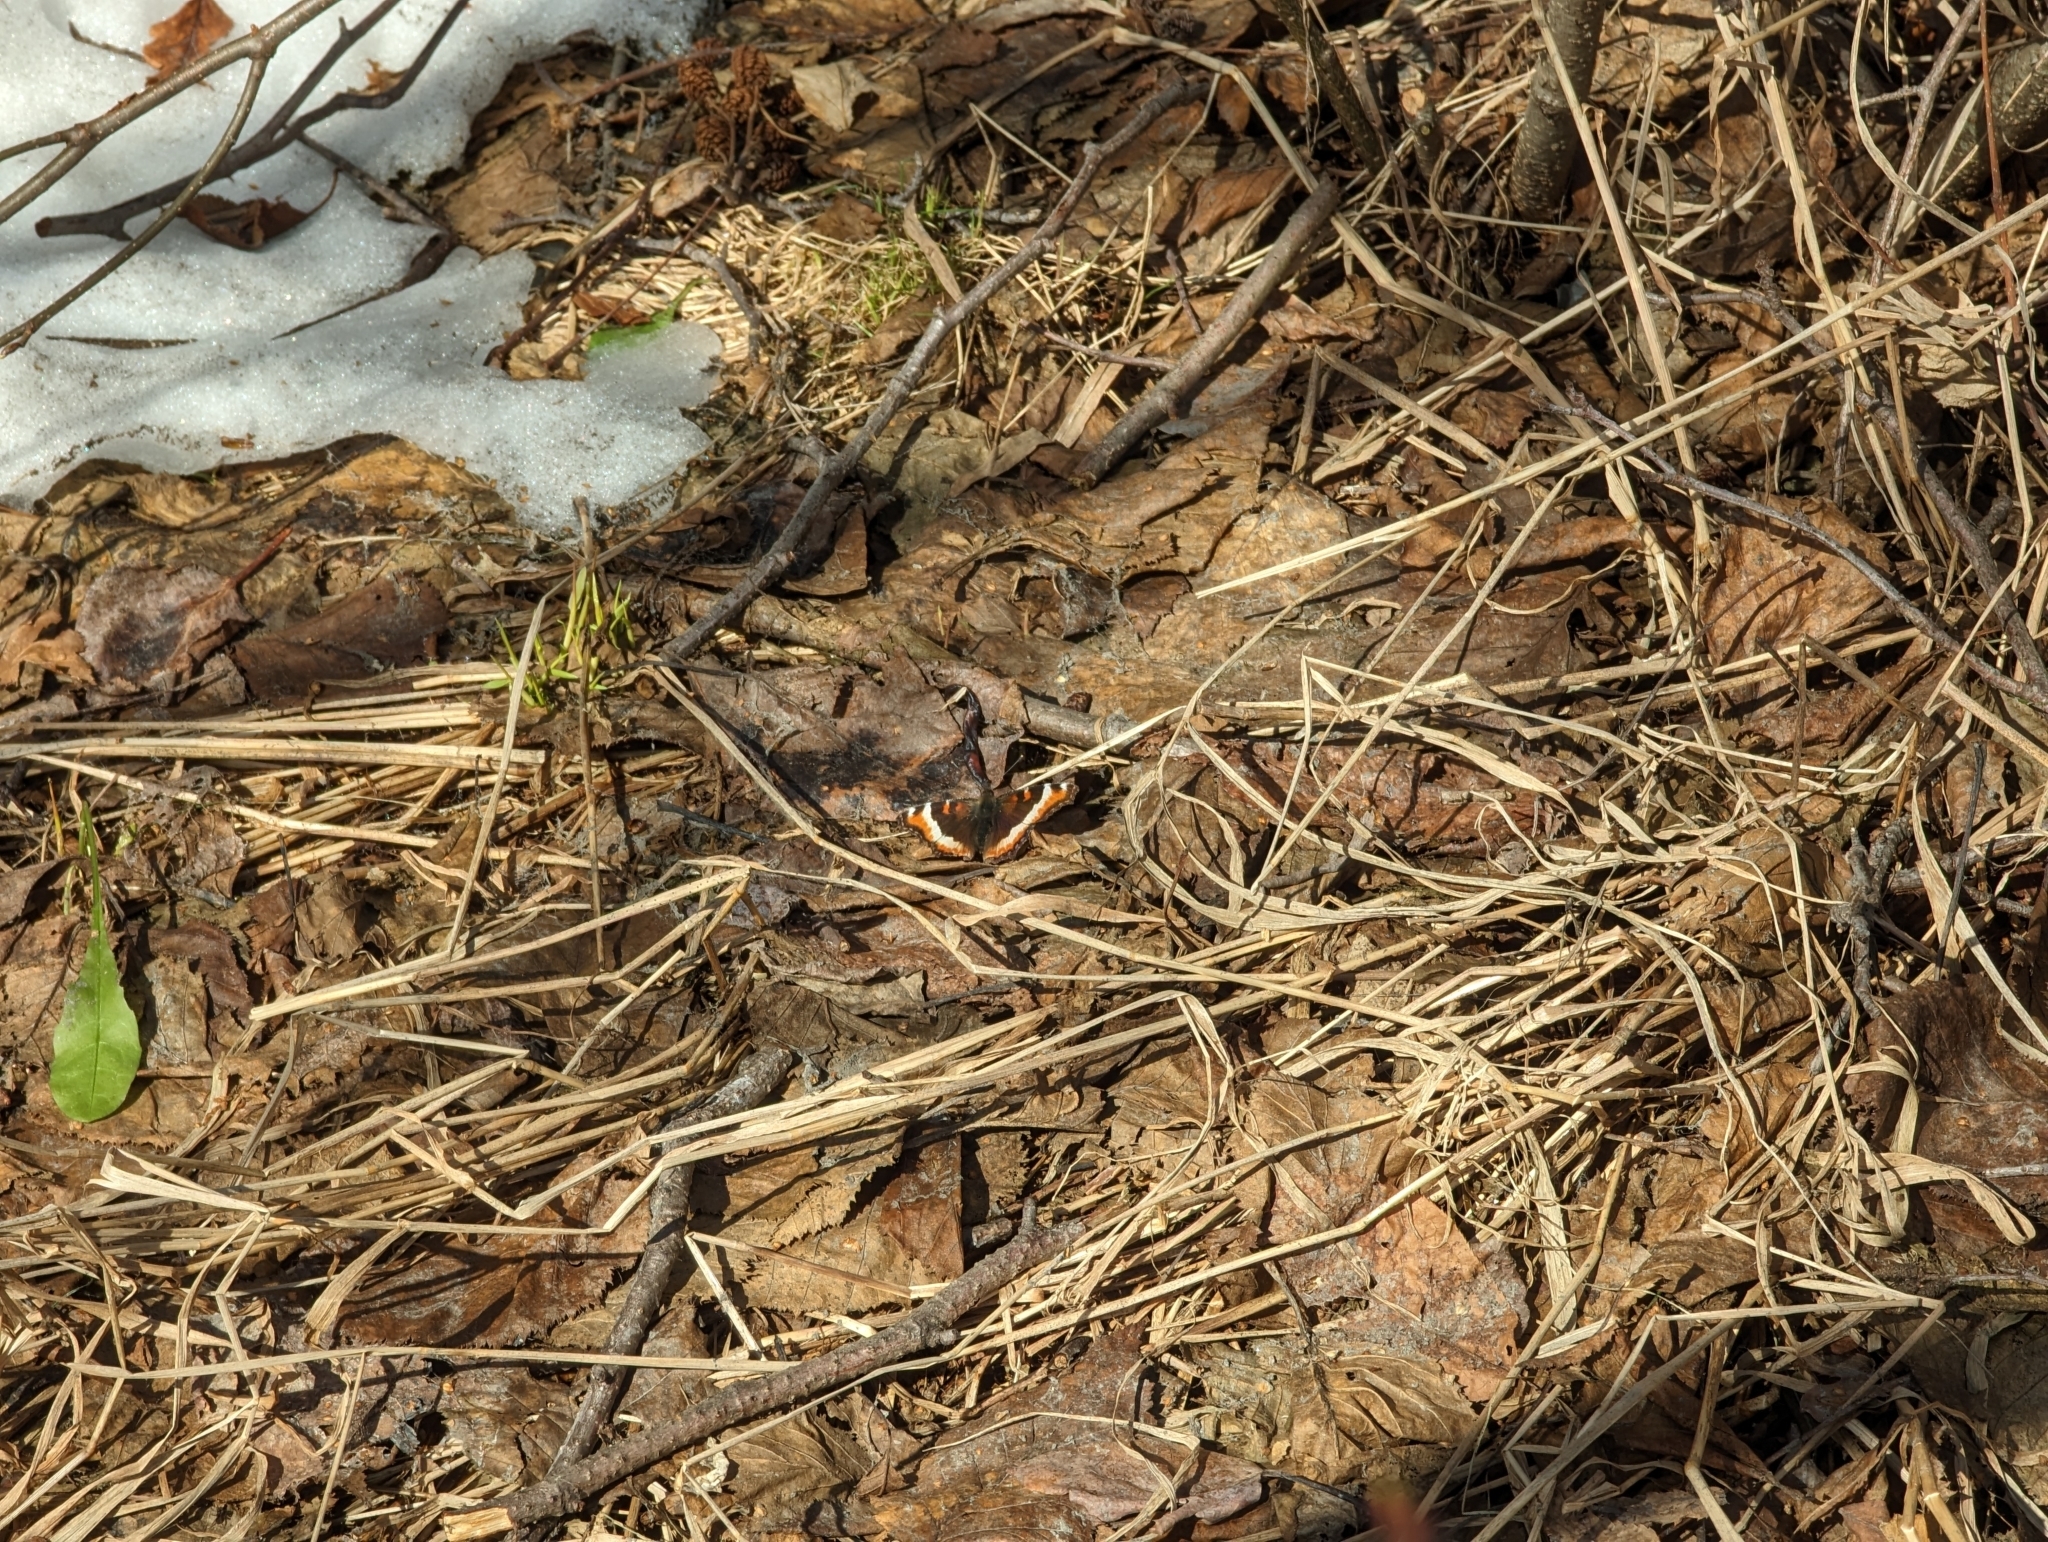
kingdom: Animalia
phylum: Arthropoda
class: Insecta
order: Lepidoptera
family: Nymphalidae
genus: Aglais
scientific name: Aglais milberti
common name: Milbert's tortoiseshell
